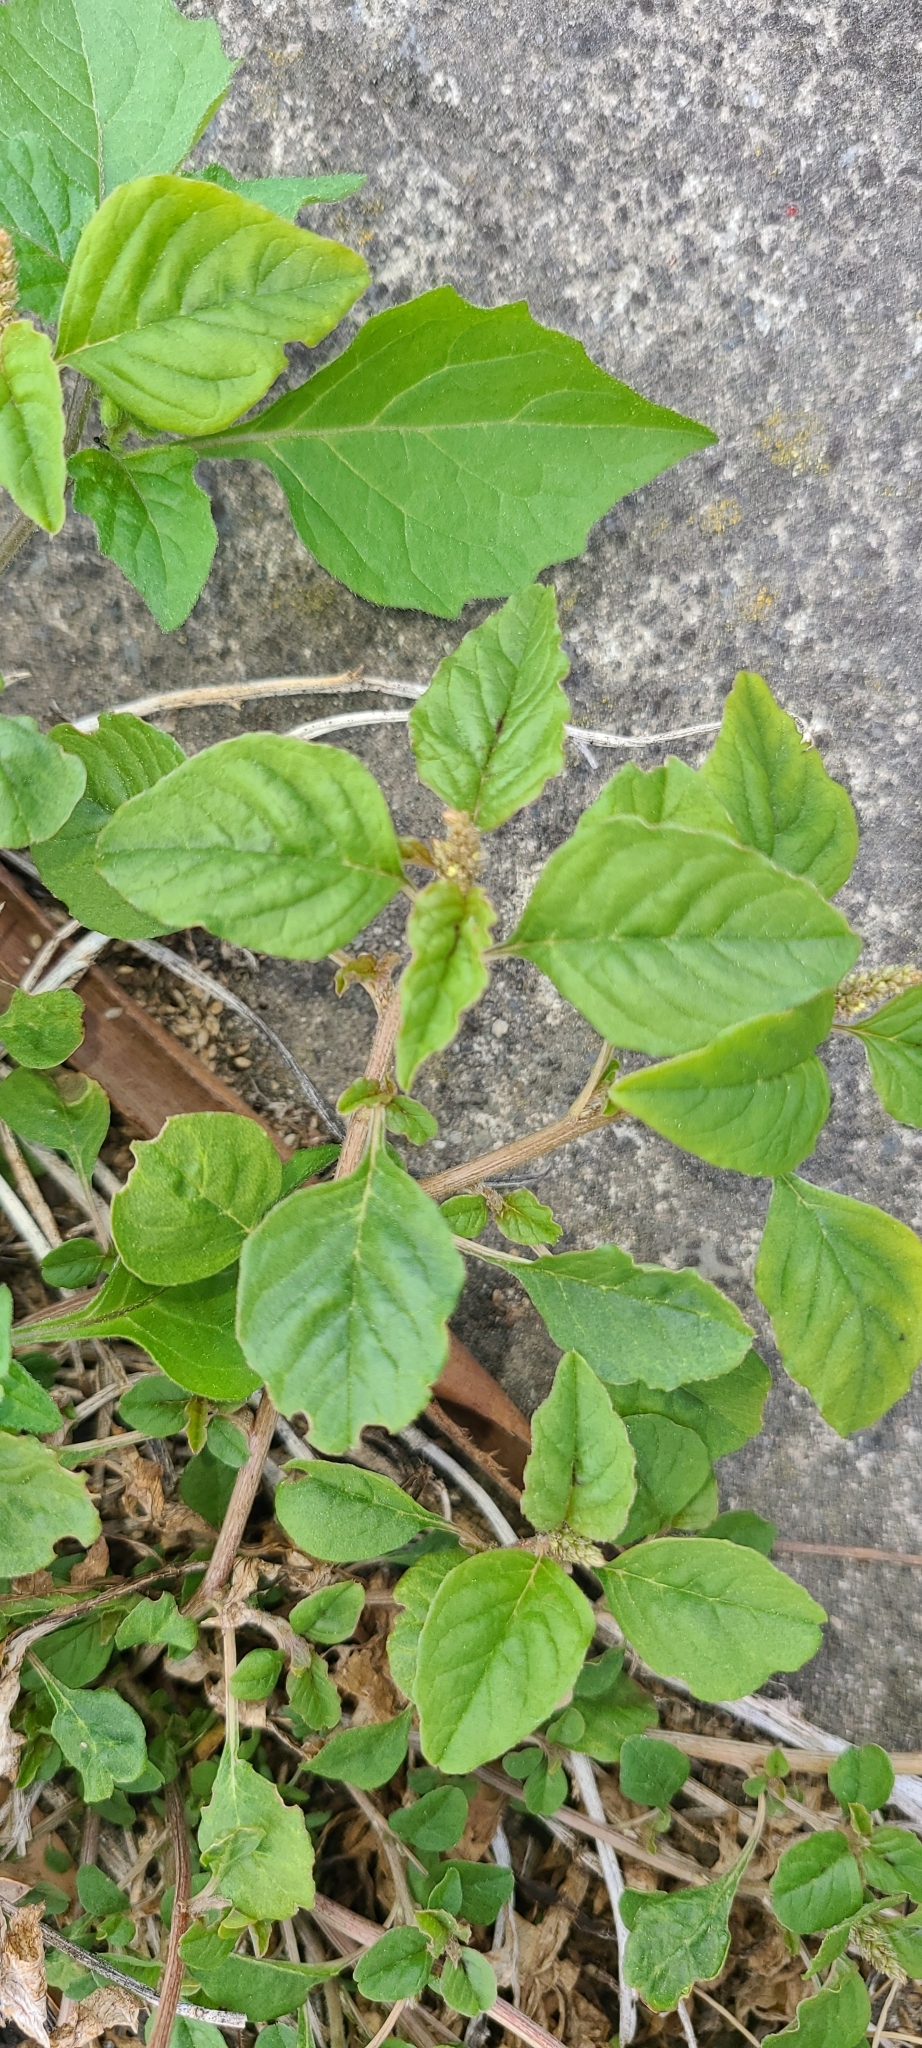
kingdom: Plantae
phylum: Tracheophyta
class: Magnoliopsida
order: Caryophyllales
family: Amaranthaceae
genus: Amaranthus
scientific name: Amaranthus deflexus
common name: Perennial pigweed
